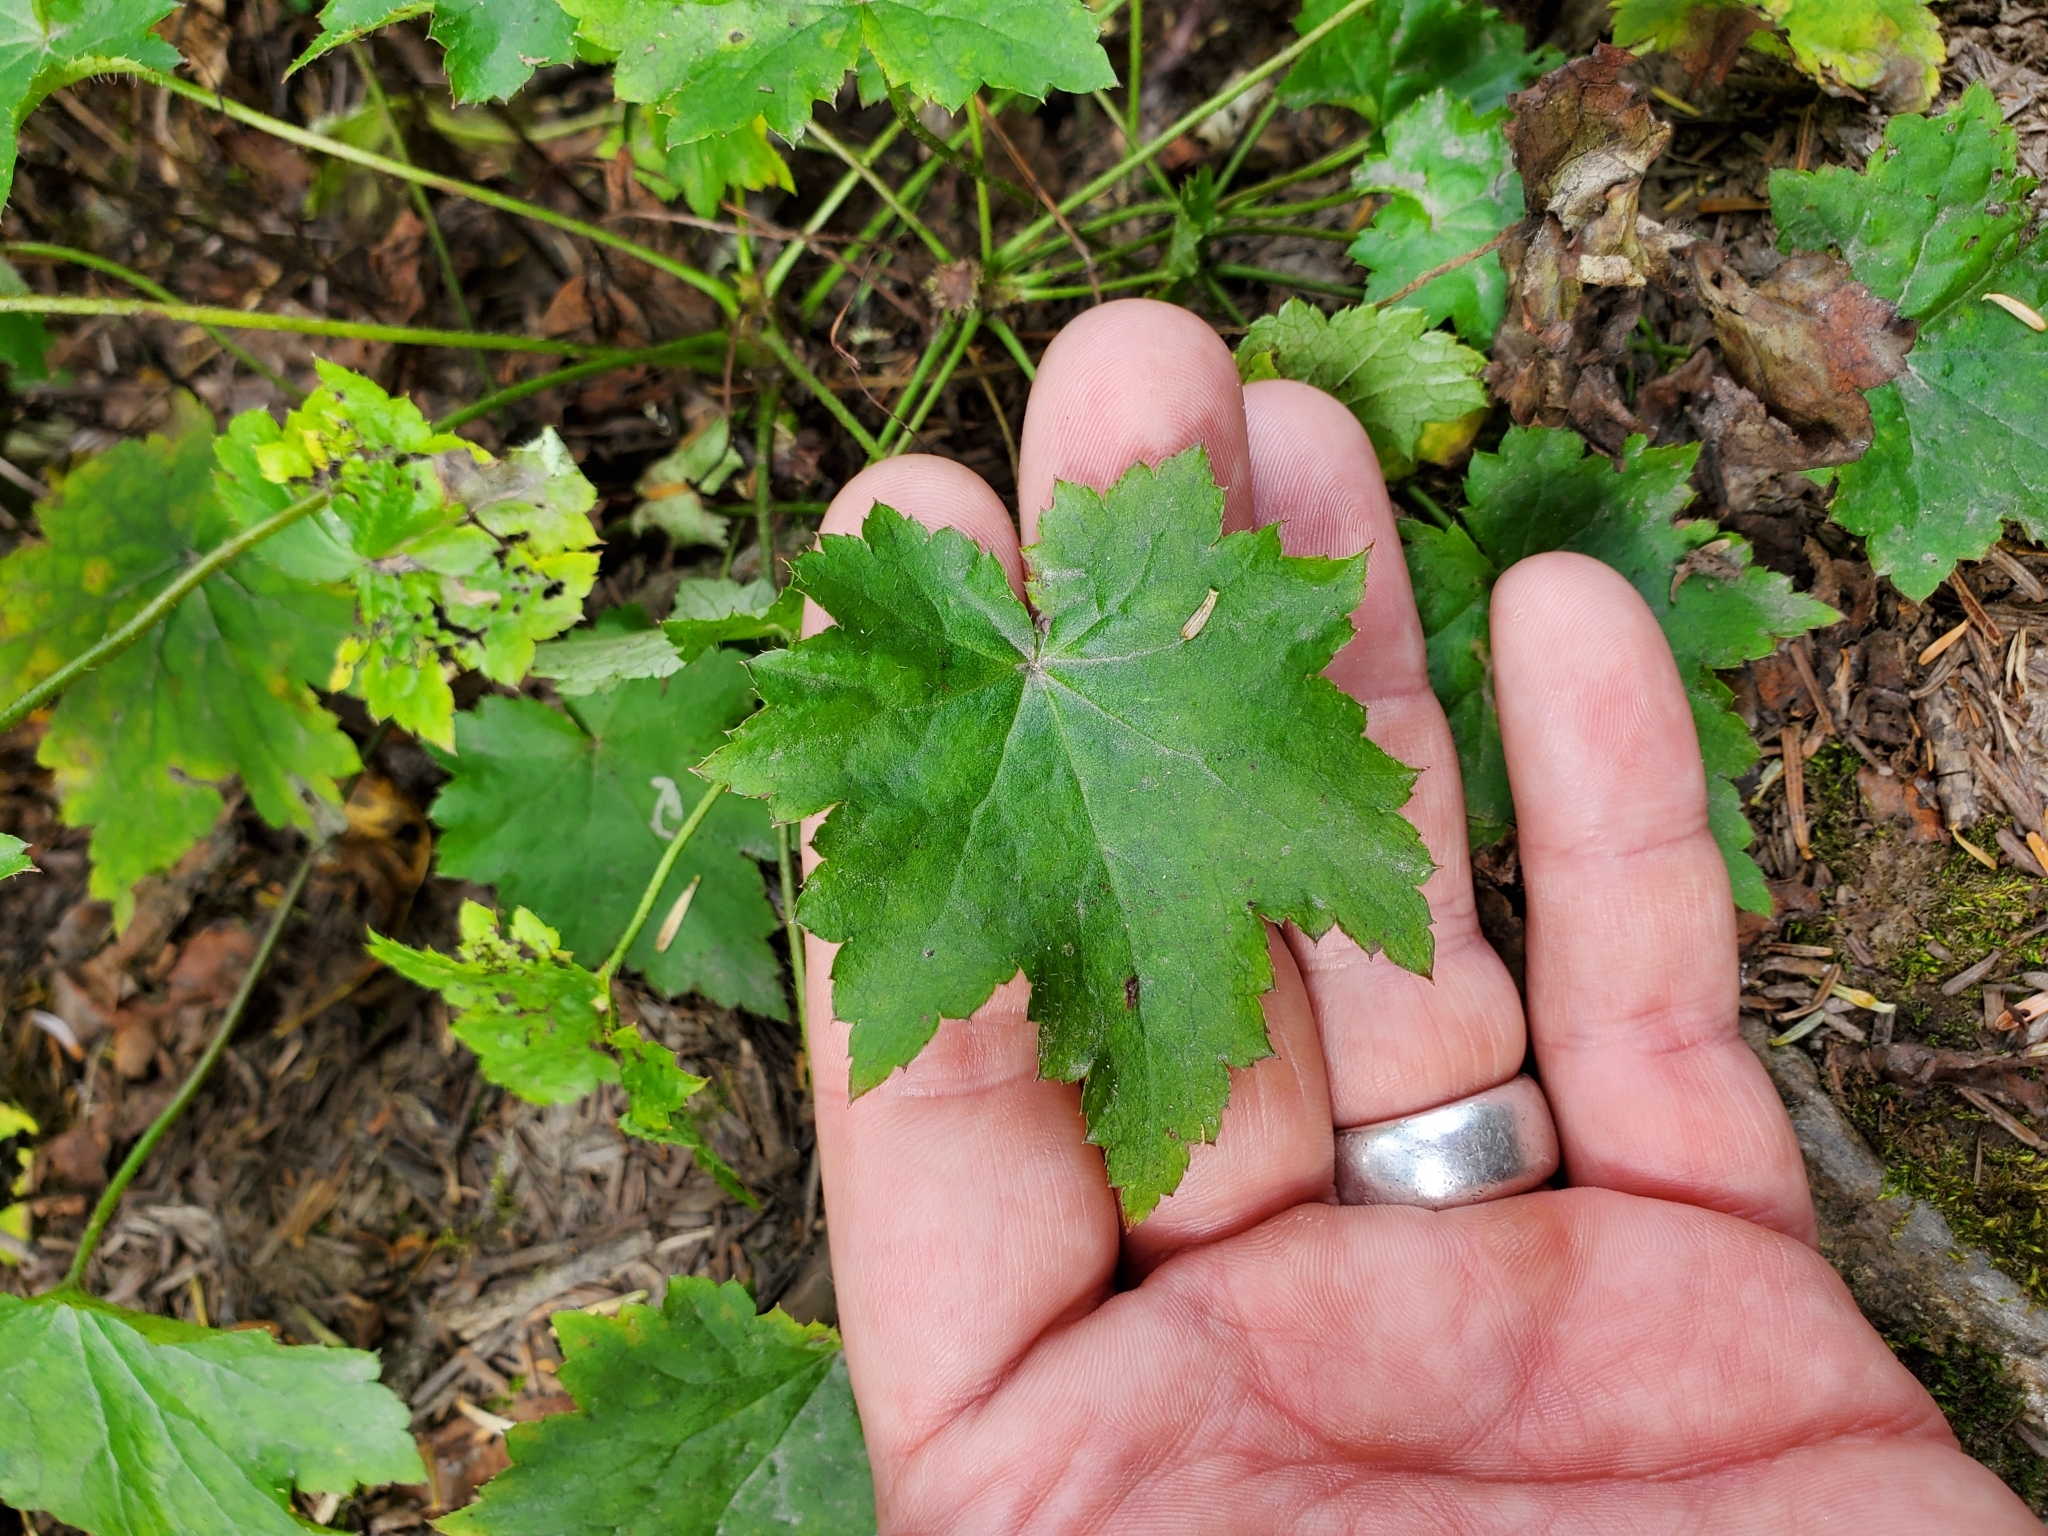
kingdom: Plantae
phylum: Tracheophyta
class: Magnoliopsida
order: Saxifragales
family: Saxifragaceae
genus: Heuchera
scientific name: Heuchera villosa
